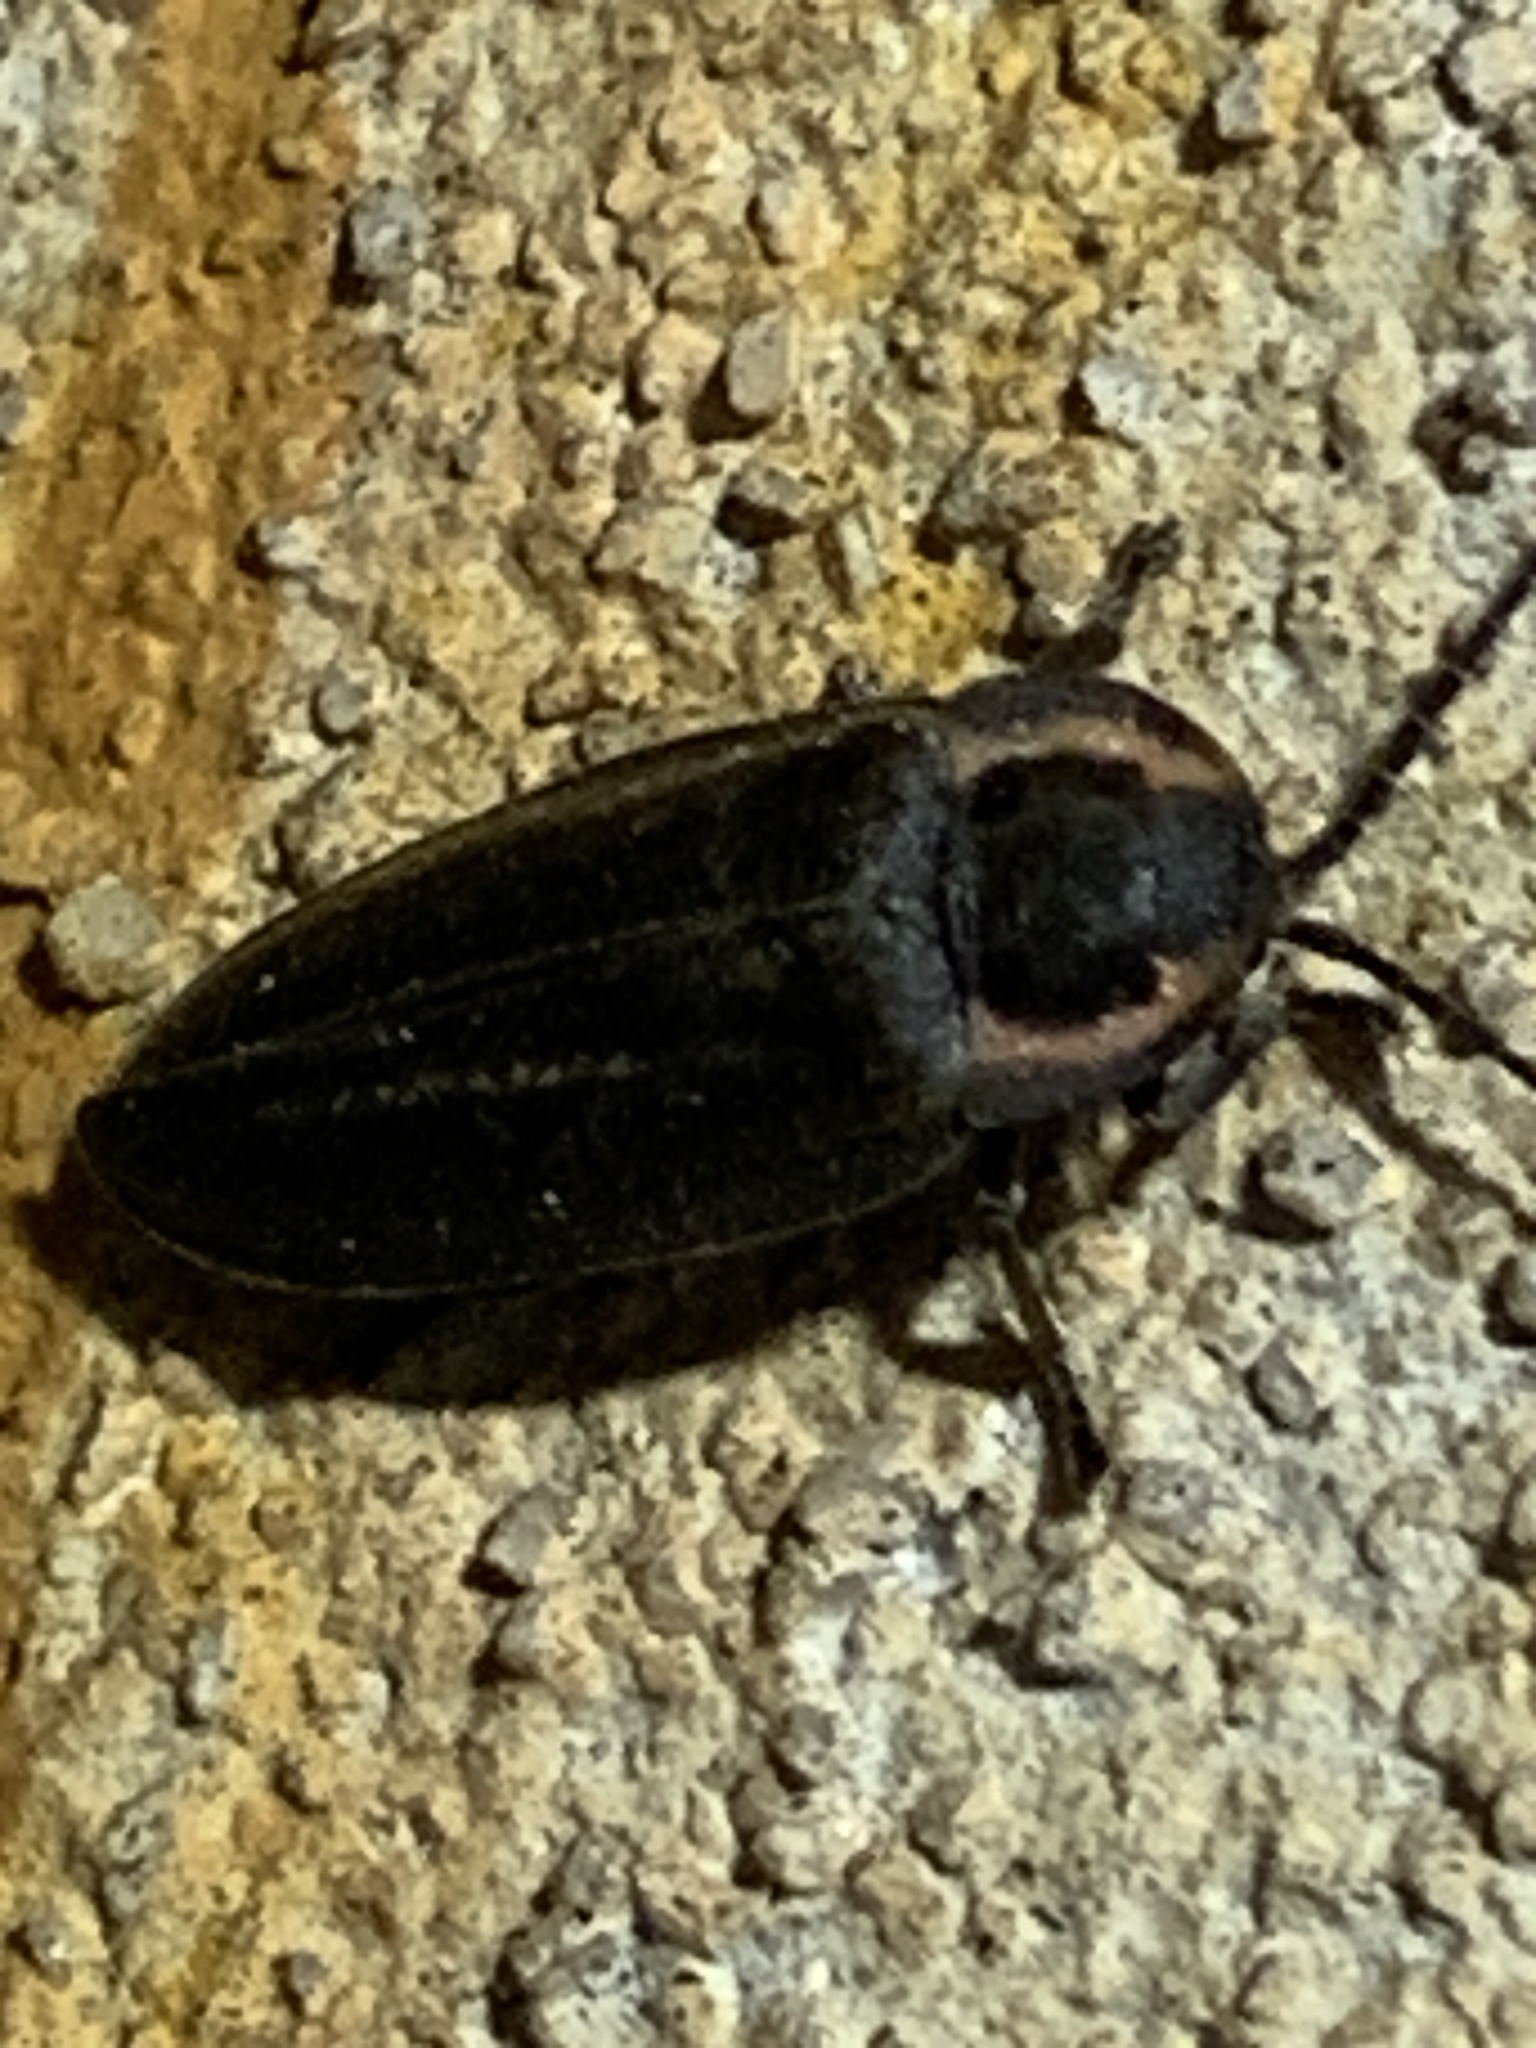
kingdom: Animalia
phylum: Arthropoda
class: Insecta
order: Coleoptera
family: Lampyridae
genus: Photinus
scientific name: Photinus corrusca
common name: Winter firefly
